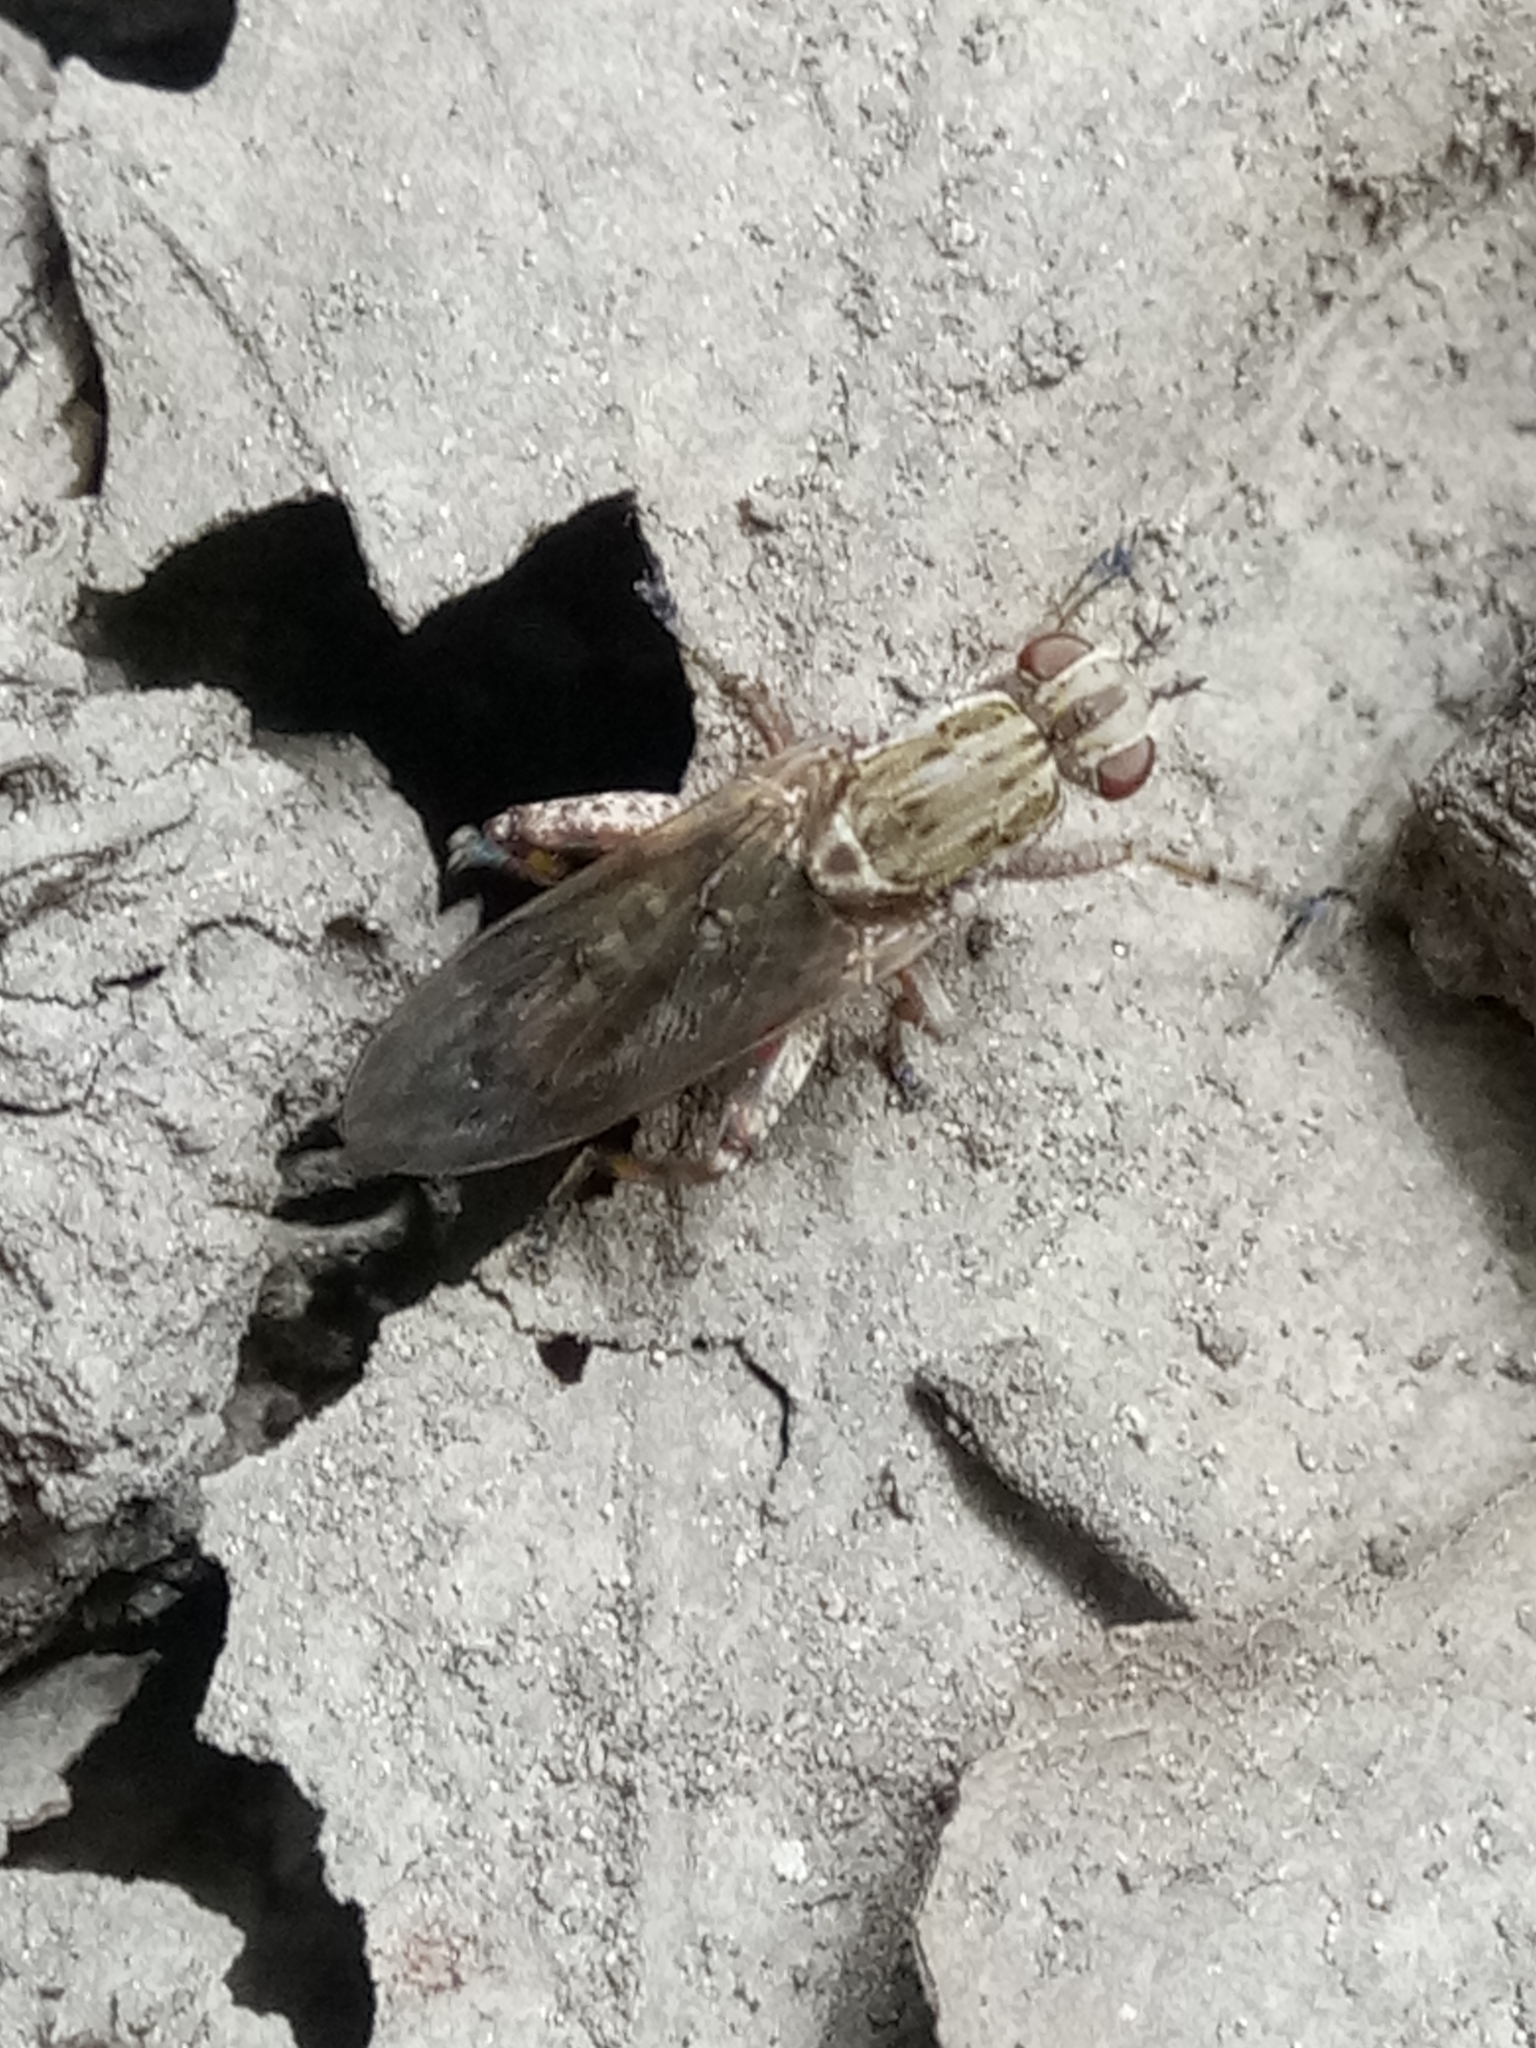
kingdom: Animalia
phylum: Arthropoda
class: Insecta
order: Diptera
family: Sciomyzidae
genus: Salticella
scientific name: Salticella fasciata
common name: Dune snail-killing fly
